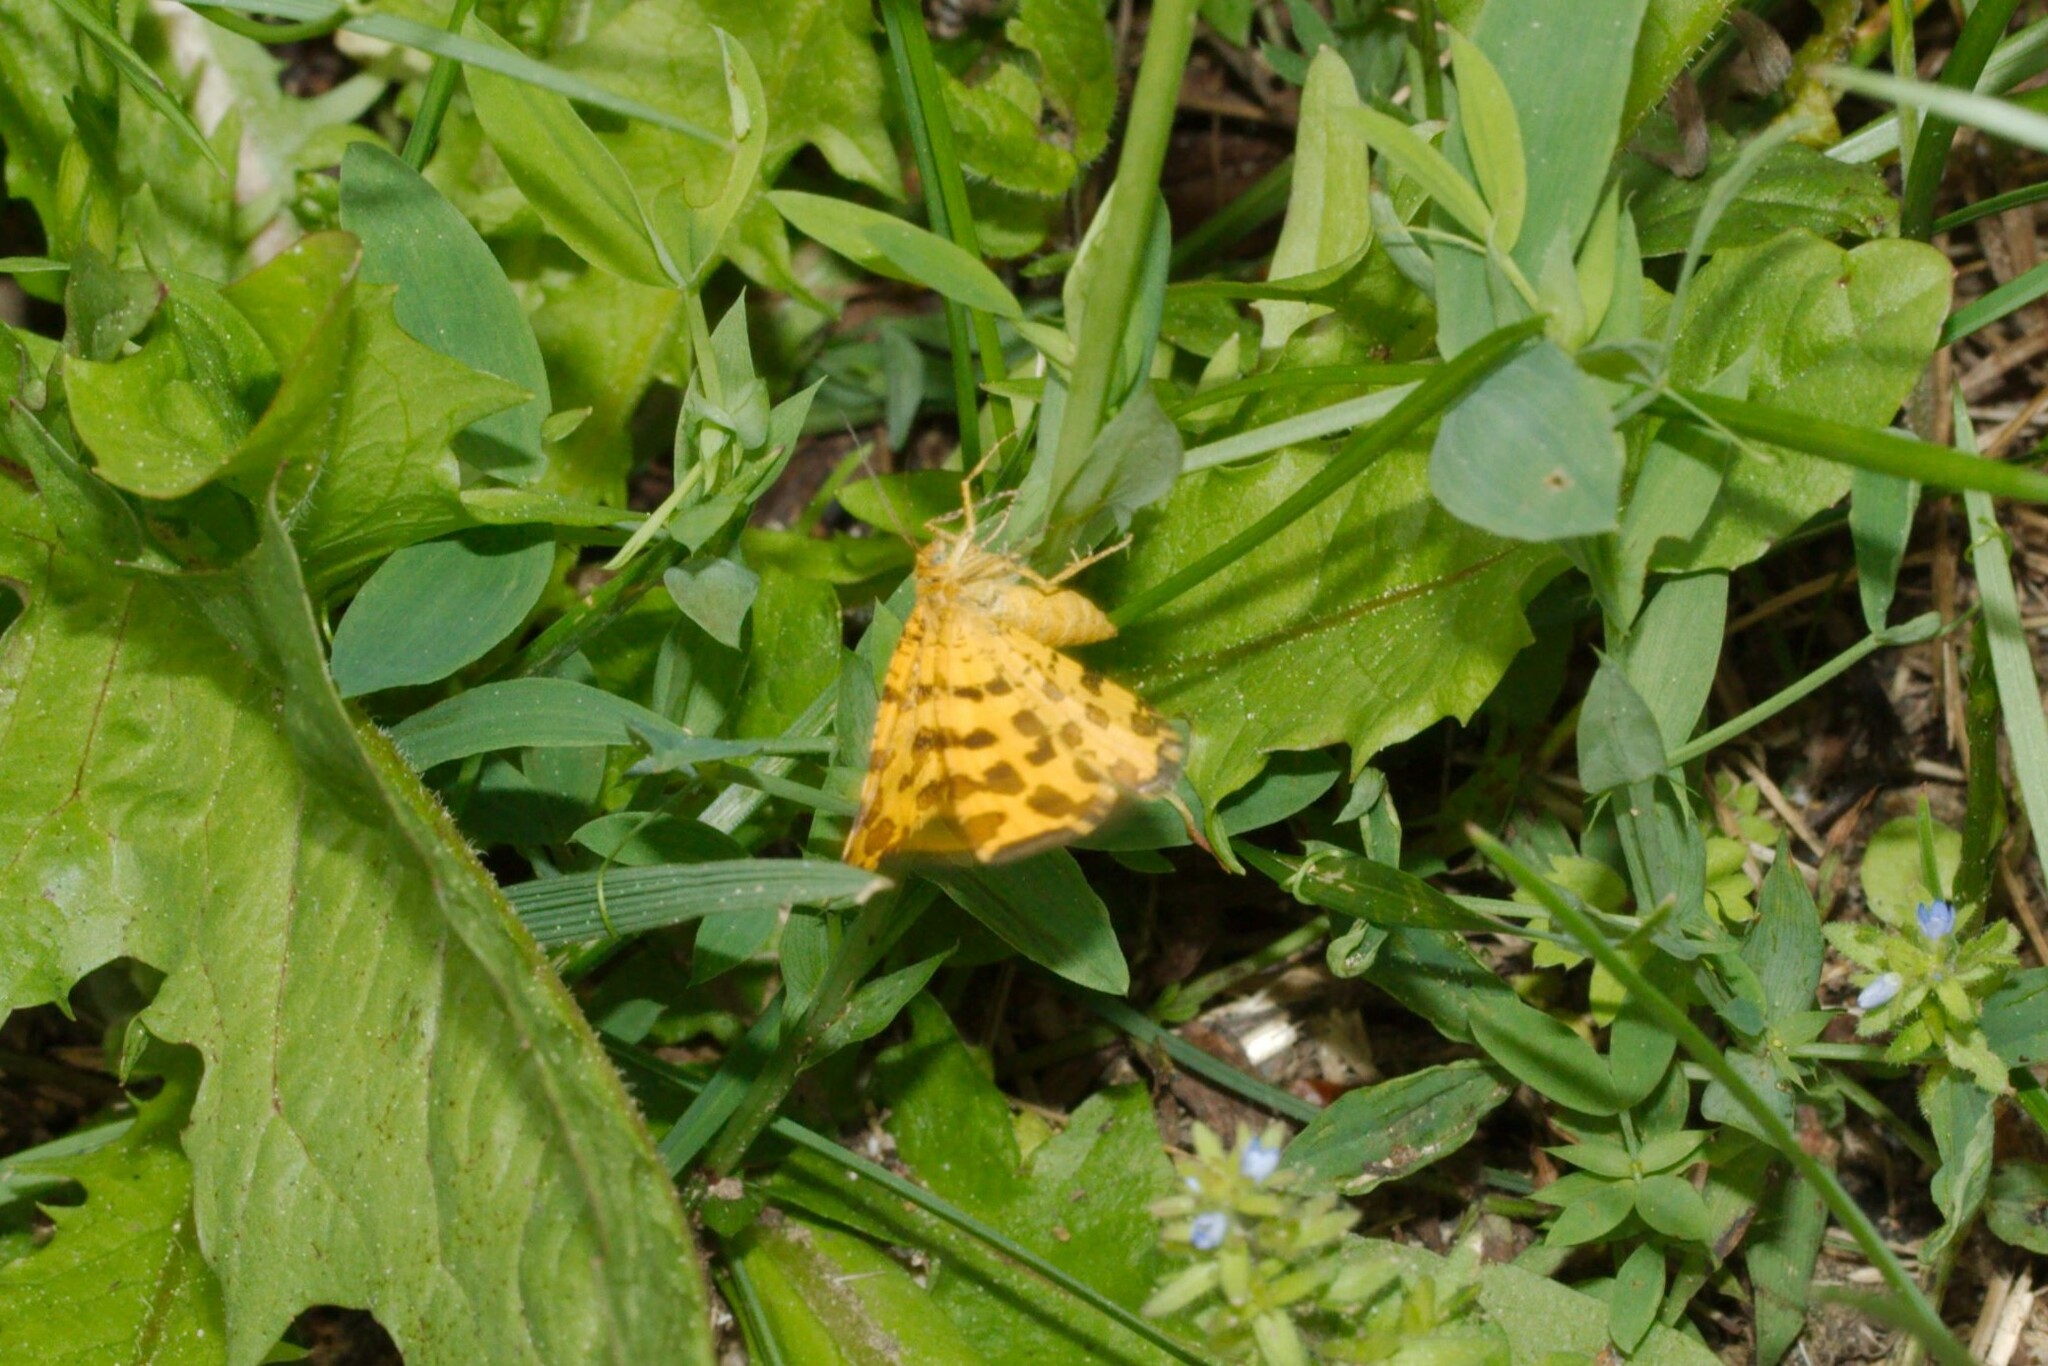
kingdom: Animalia
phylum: Arthropoda
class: Insecta
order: Lepidoptera
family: Geometridae
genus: Pseudopanthera
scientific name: Pseudopanthera macularia
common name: Speckled yellow
